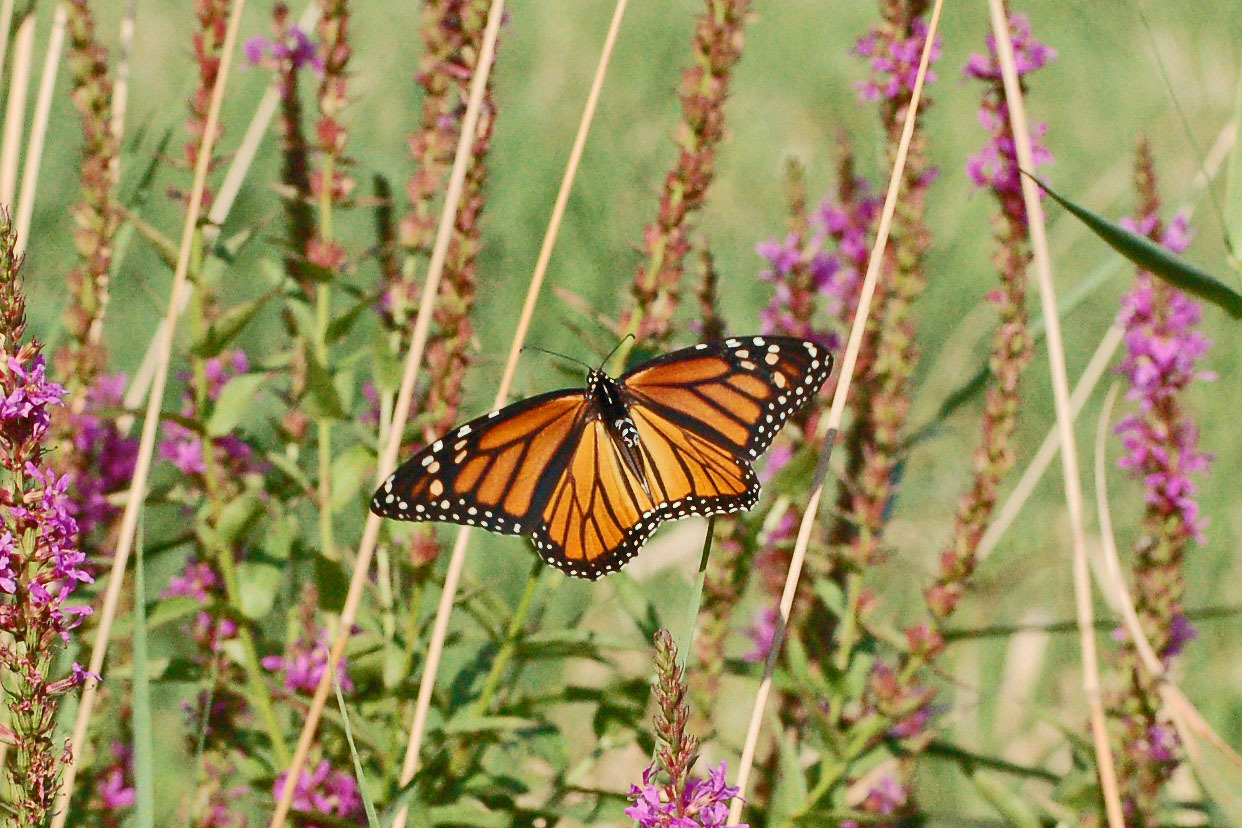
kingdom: Animalia
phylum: Arthropoda
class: Insecta
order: Lepidoptera
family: Nymphalidae
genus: Danaus
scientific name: Danaus plexippus
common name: Monarch
